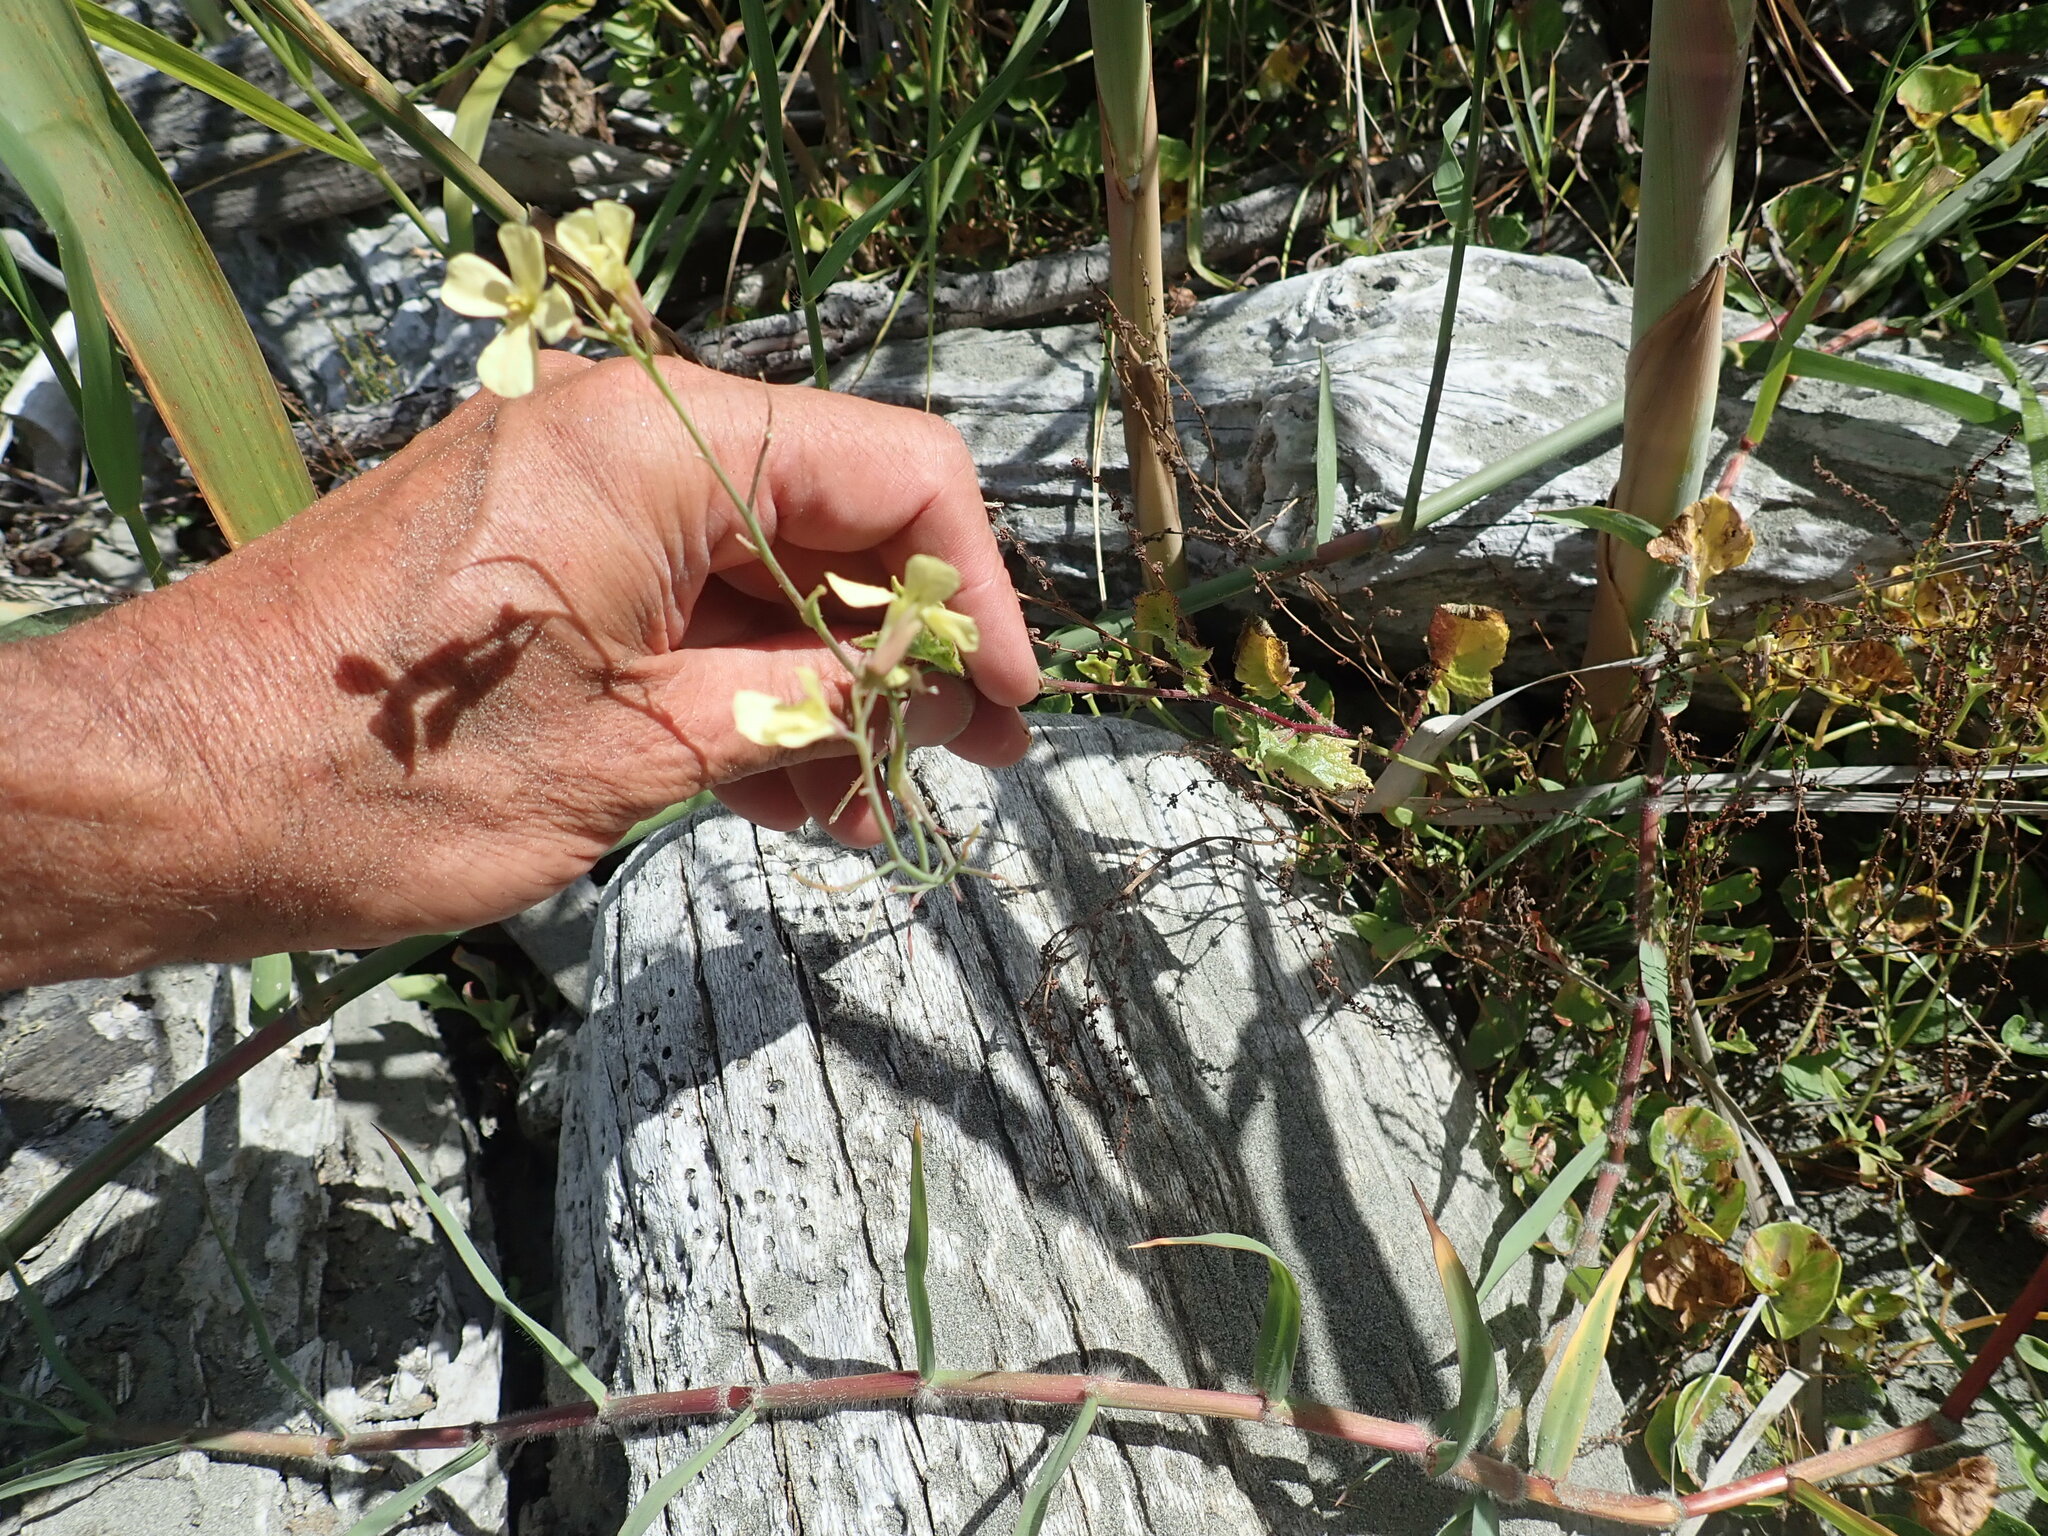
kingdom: Plantae
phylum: Tracheophyta
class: Magnoliopsida
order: Brassicales
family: Brassicaceae
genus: Raphanus
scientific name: Raphanus raphanistrum
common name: Wild radish
